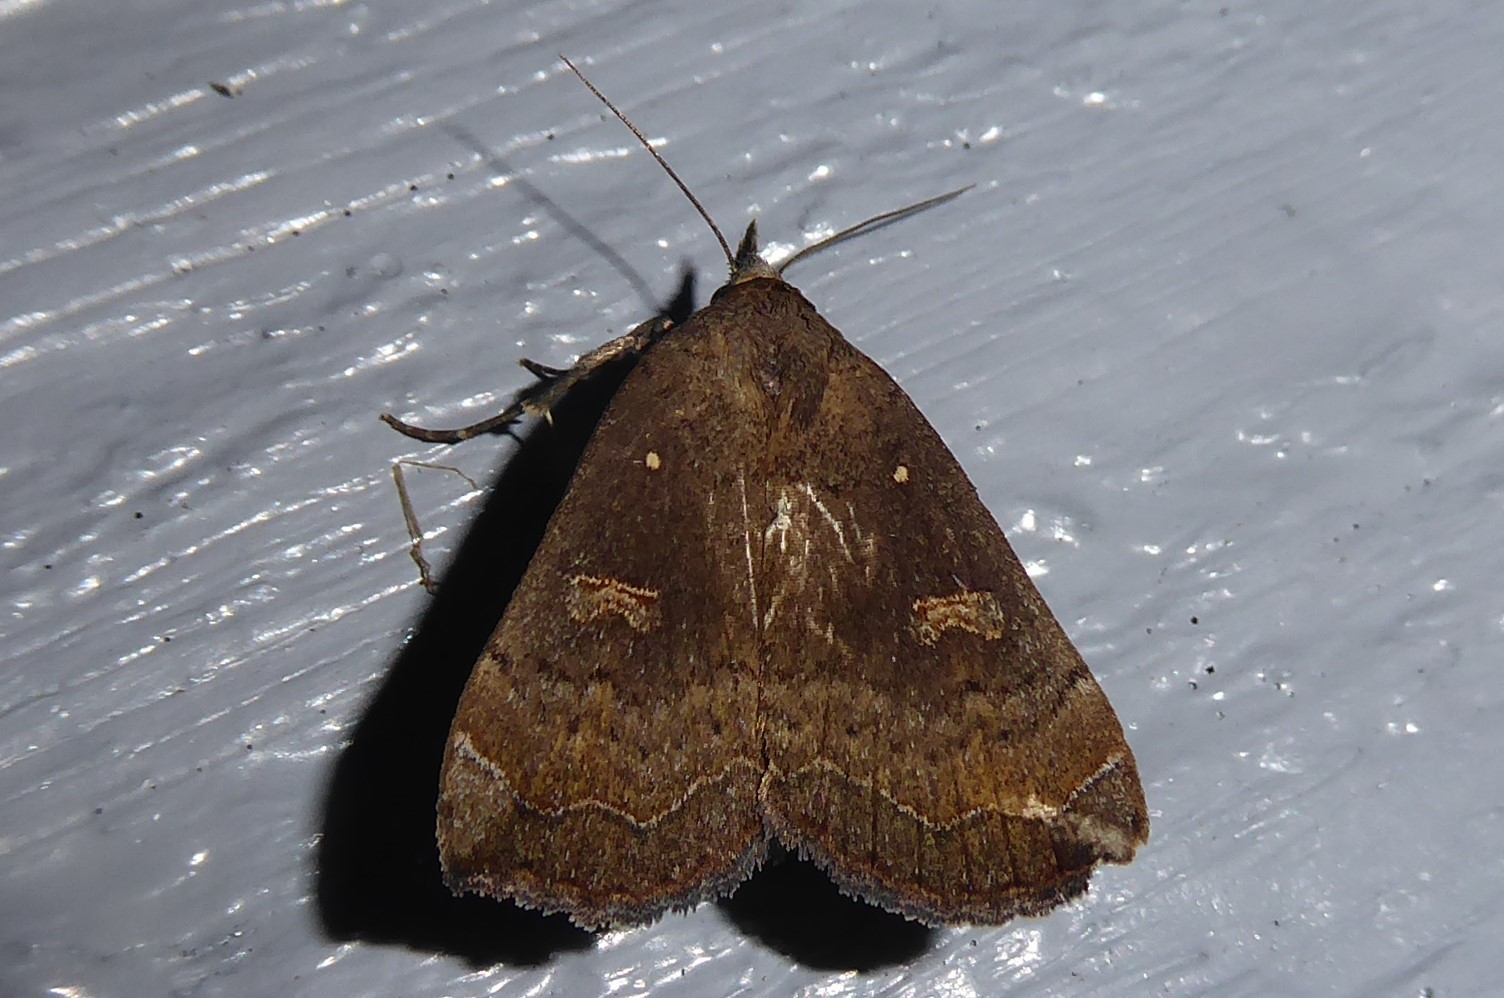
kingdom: Animalia
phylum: Arthropoda
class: Insecta
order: Lepidoptera
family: Erebidae
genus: Rhapsa
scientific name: Rhapsa scotosialis
